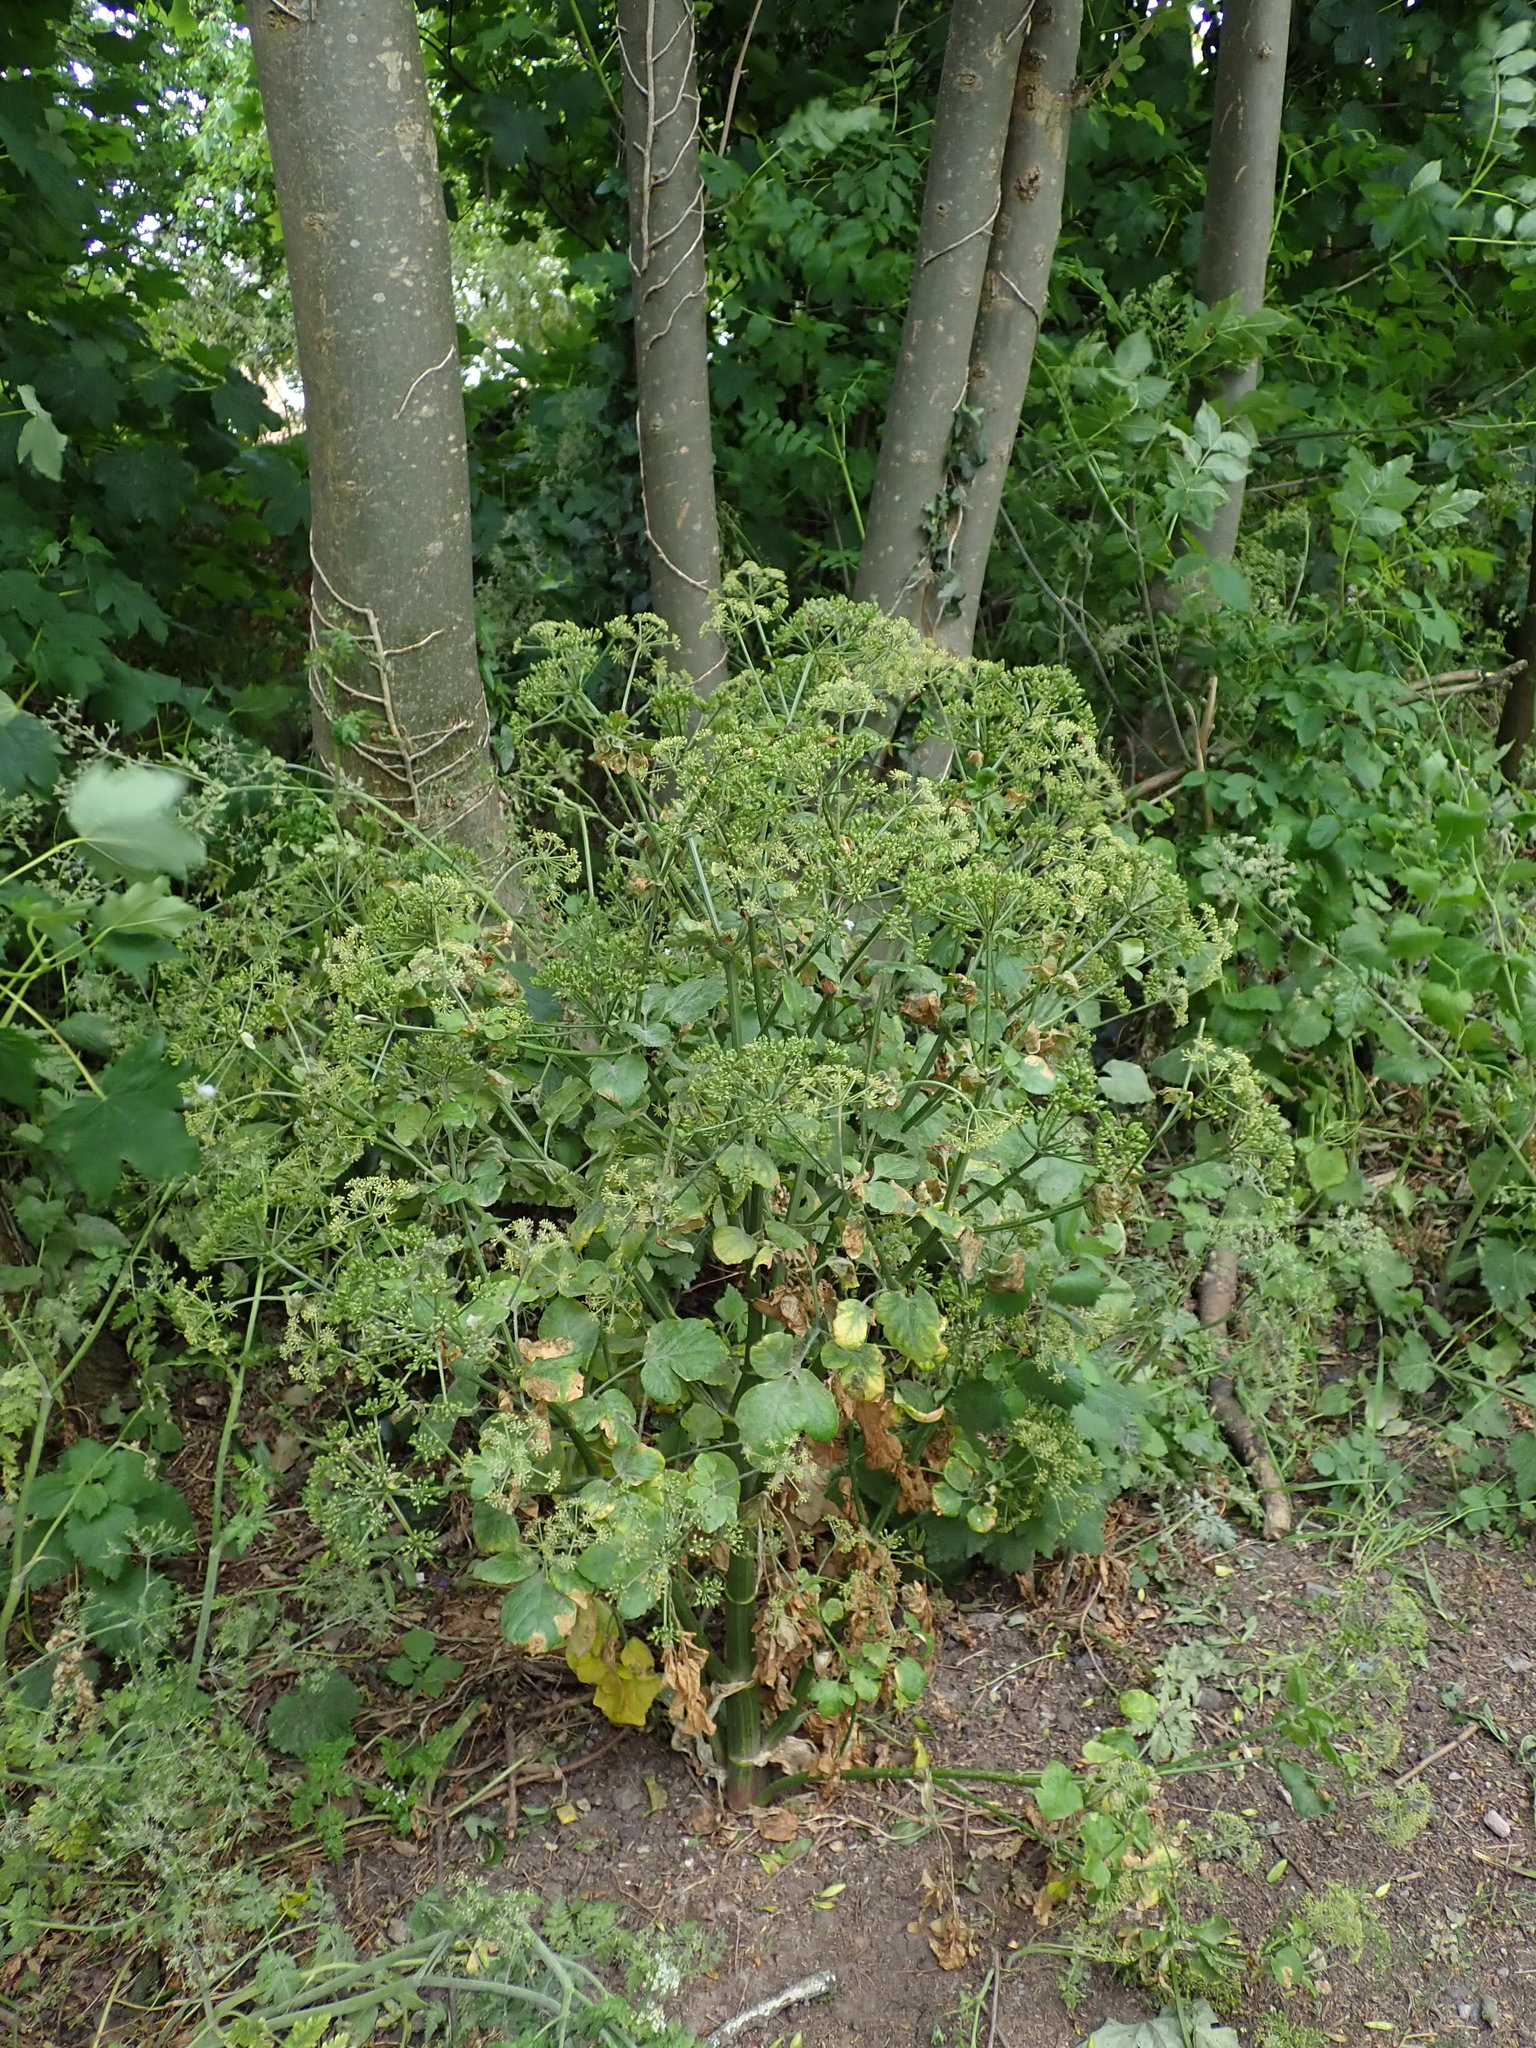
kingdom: Plantae
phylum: Tracheophyta
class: Magnoliopsida
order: Apiales
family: Apiaceae
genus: Smyrnium
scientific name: Smyrnium olusatrum
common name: Alexanders
